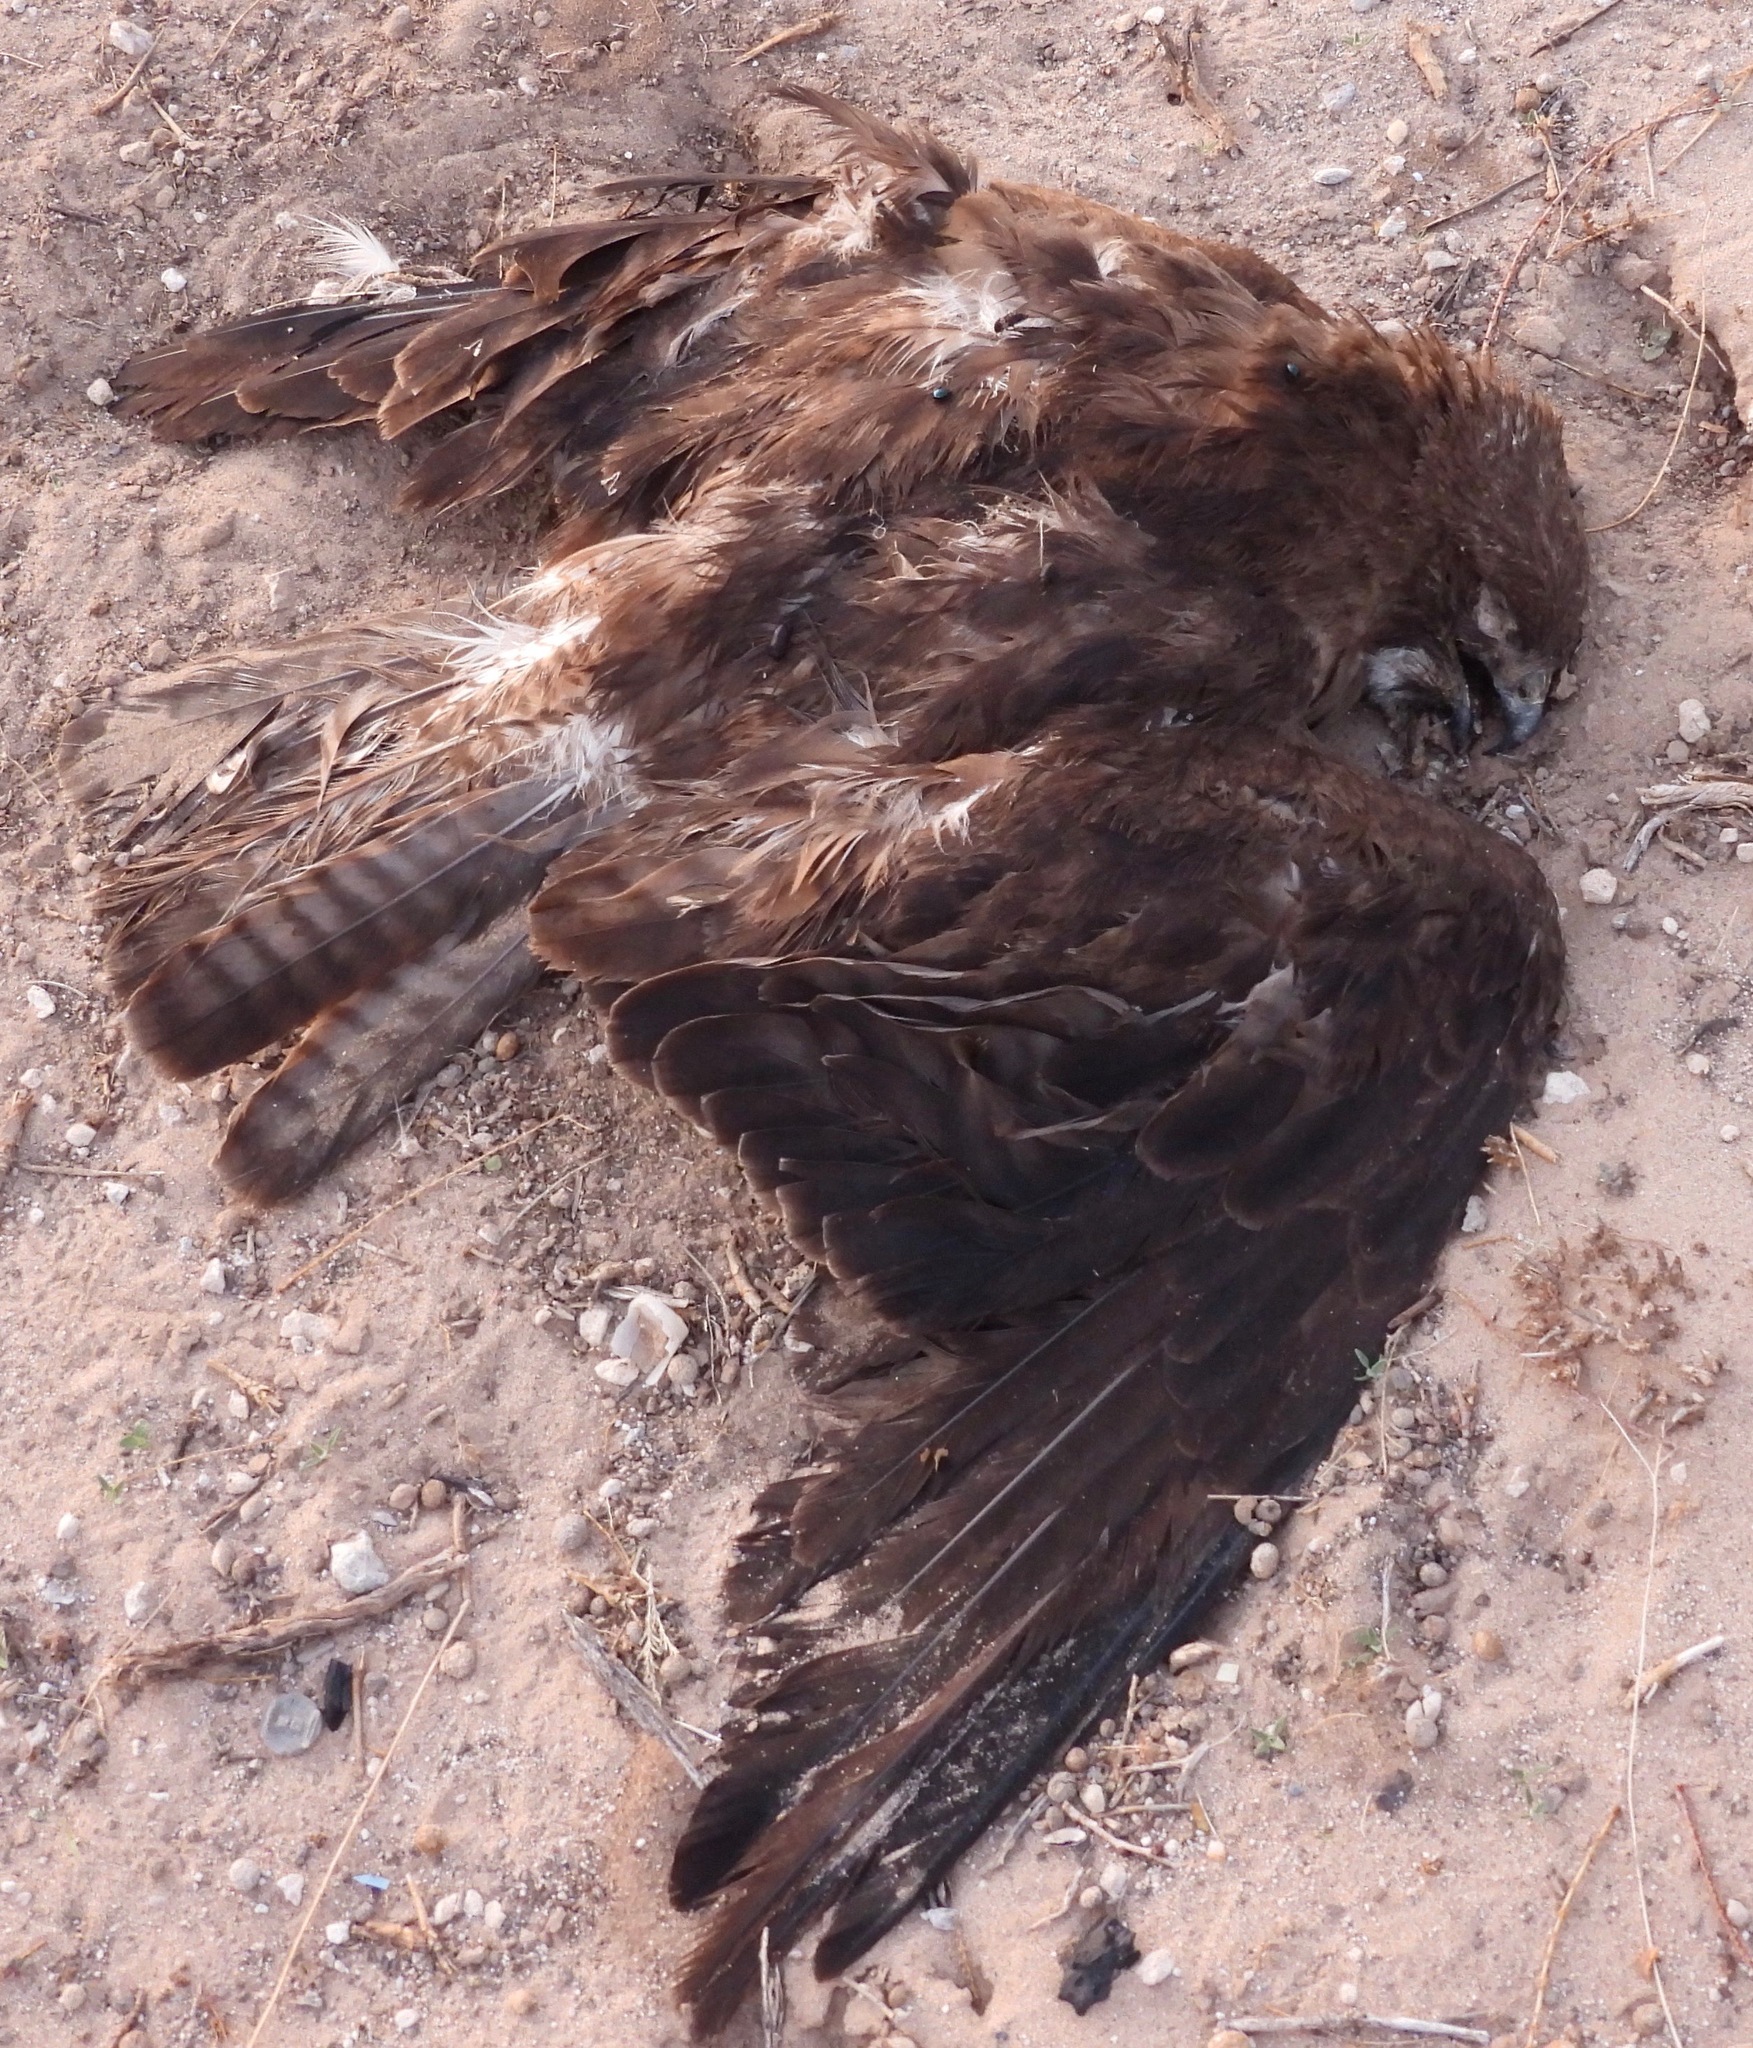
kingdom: Animalia
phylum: Chordata
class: Aves
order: Accipitriformes
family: Accipitridae
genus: Buteo
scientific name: Buteo swainsoni
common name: Swainson's hawk
